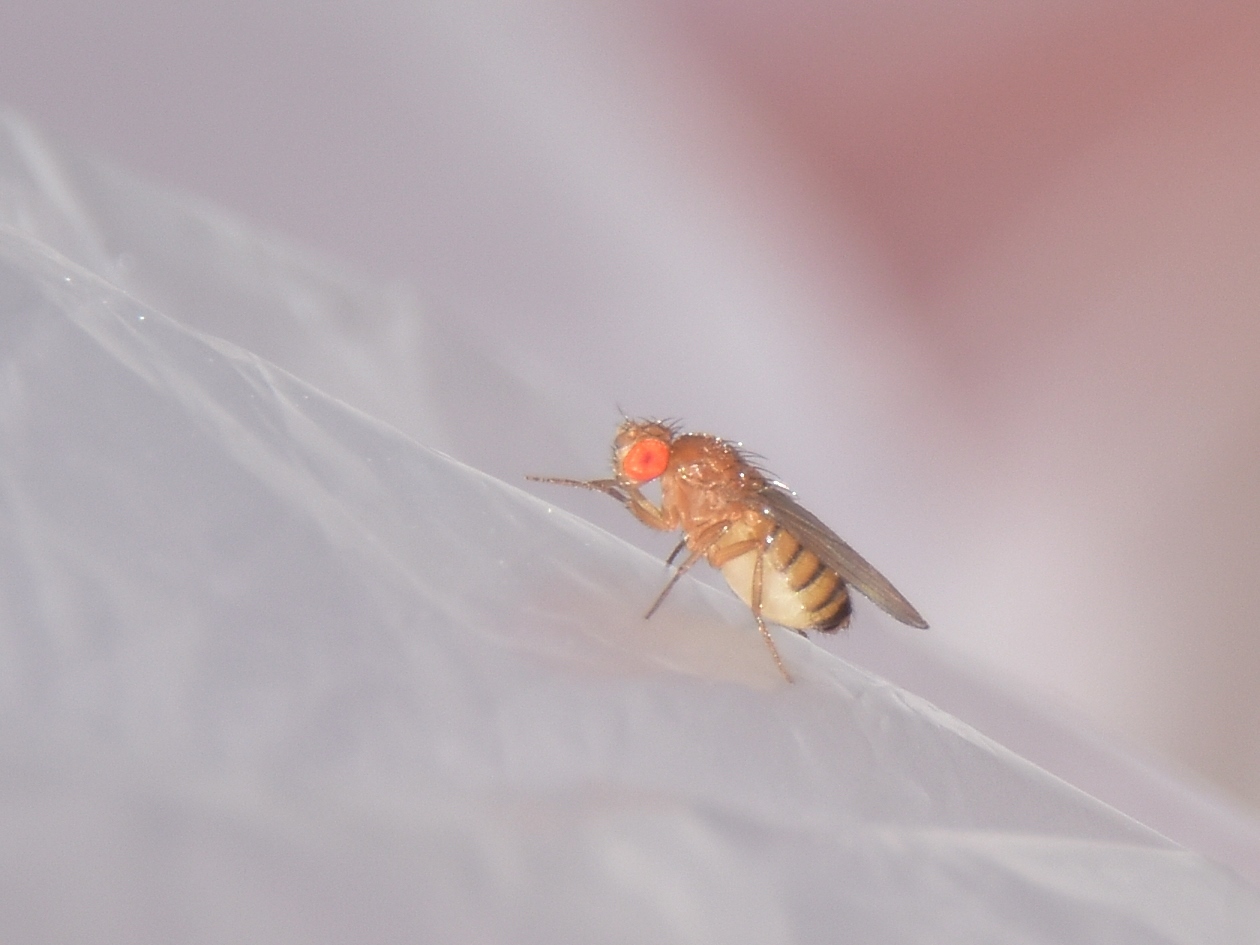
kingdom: Animalia
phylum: Arthropoda
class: Insecta
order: Diptera
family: Drosophilidae
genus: Drosophila
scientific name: Drosophila melanogaster
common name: Pomace fly
